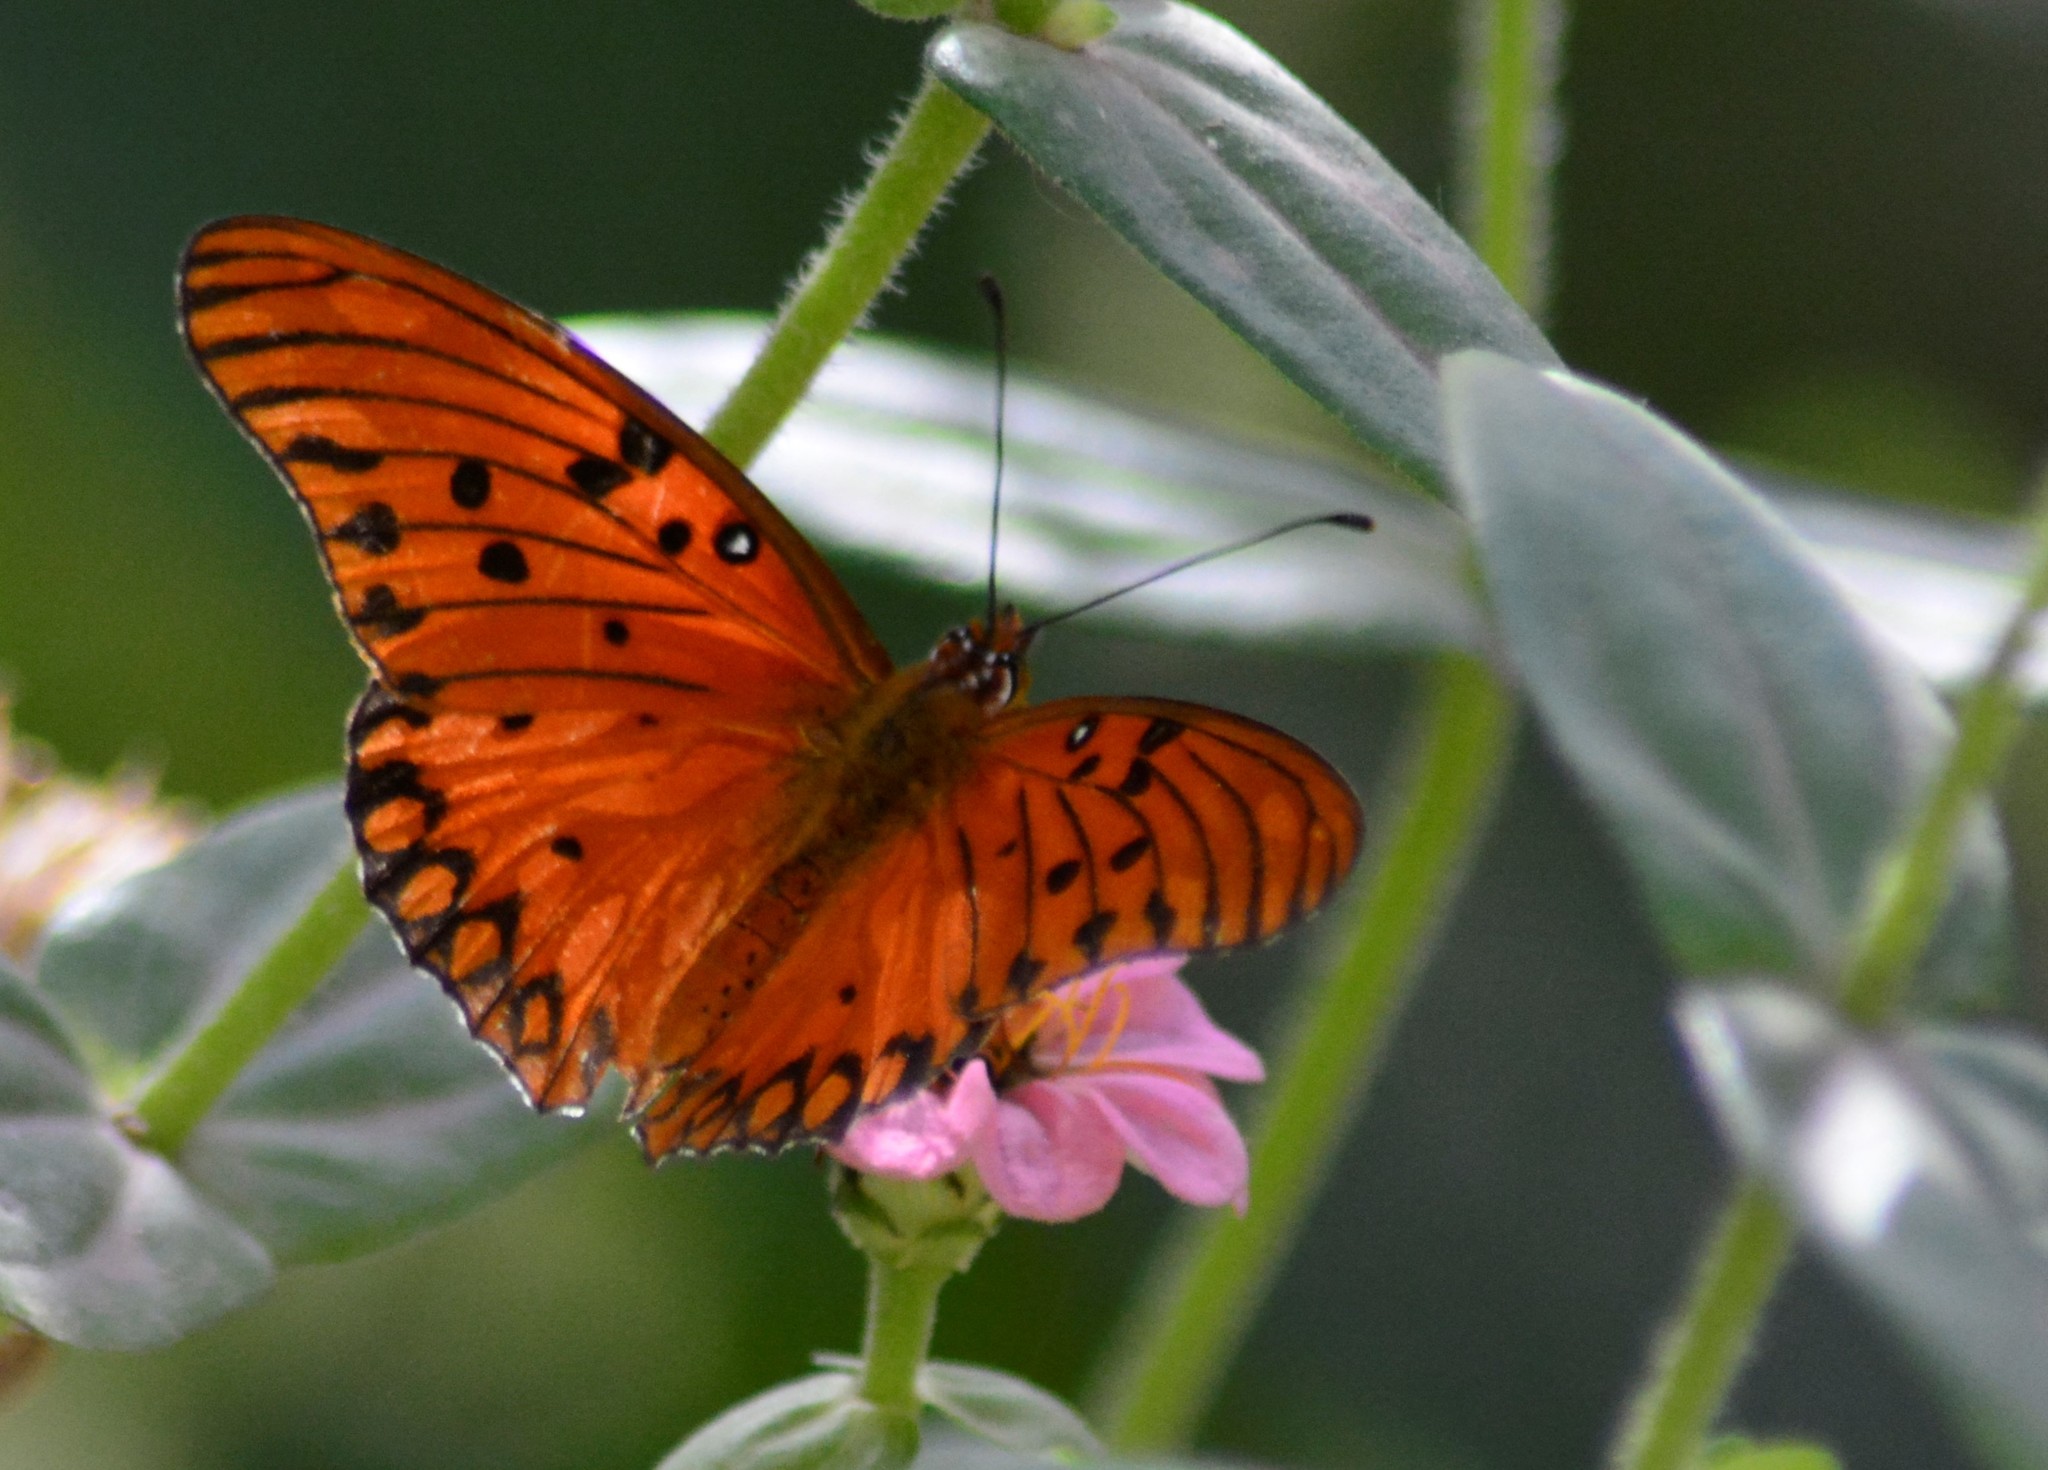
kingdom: Animalia
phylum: Arthropoda
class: Insecta
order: Lepidoptera
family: Nymphalidae
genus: Dione
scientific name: Dione vanillae
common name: Gulf fritillary
